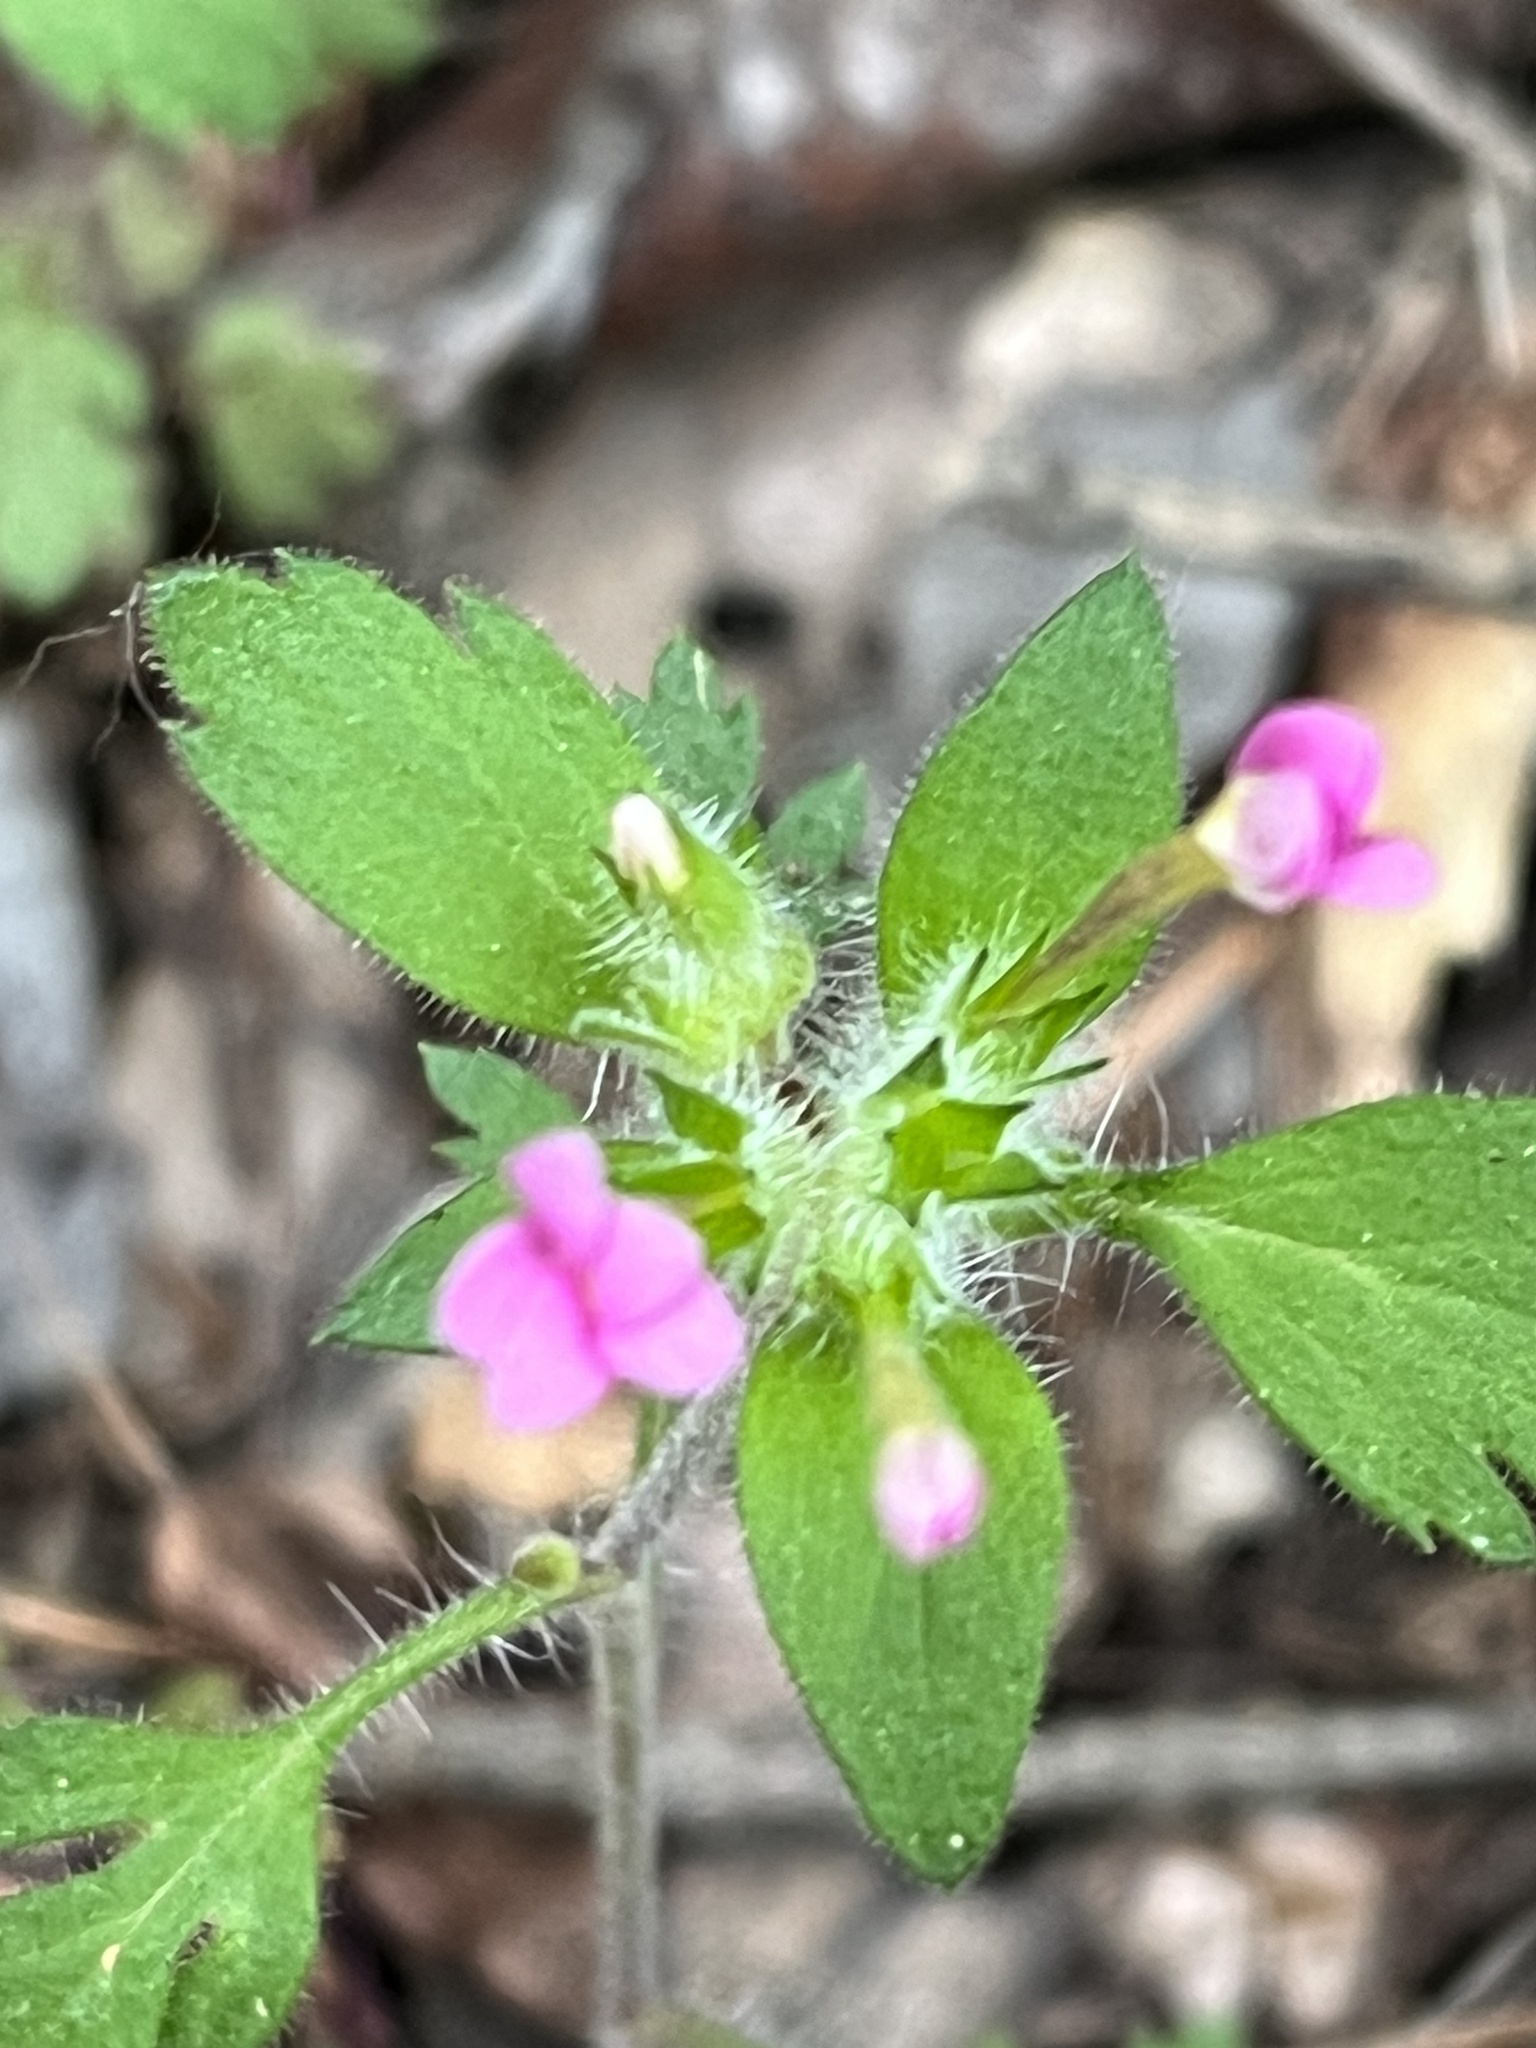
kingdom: Plantae
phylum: Tracheophyta
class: Magnoliopsida
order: Ericales
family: Polemoniaceae
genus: Collomia
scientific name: Collomia heterophylla
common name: Variable-leaved collomia
